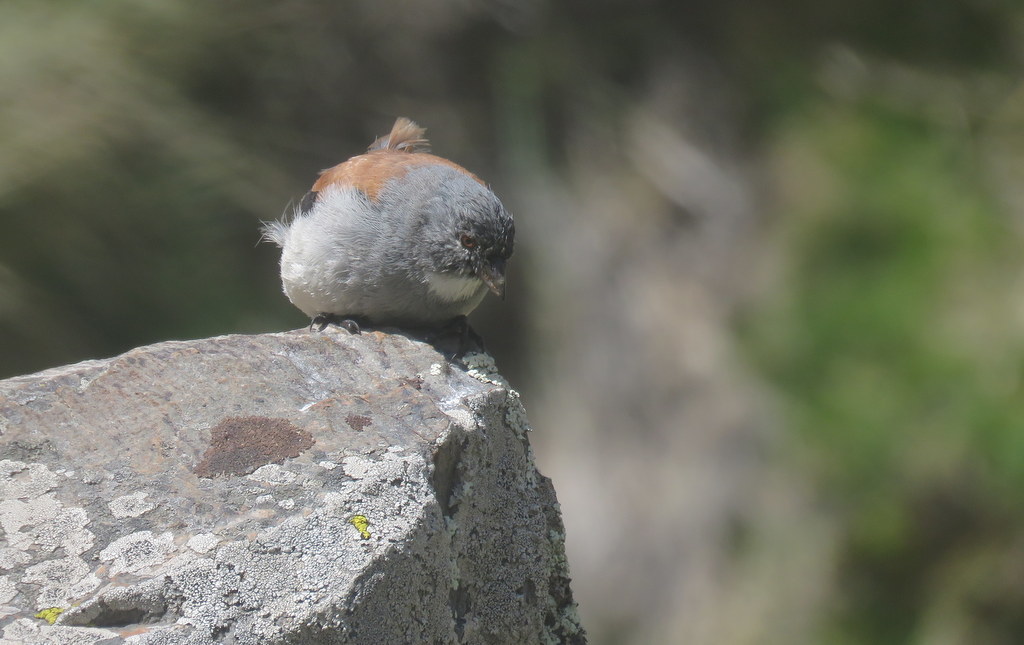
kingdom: Animalia
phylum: Chordata
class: Aves
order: Passeriformes
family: Thraupidae
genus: Idiopsar
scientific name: Idiopsar dorsalis
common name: Red-backed sierra finch
